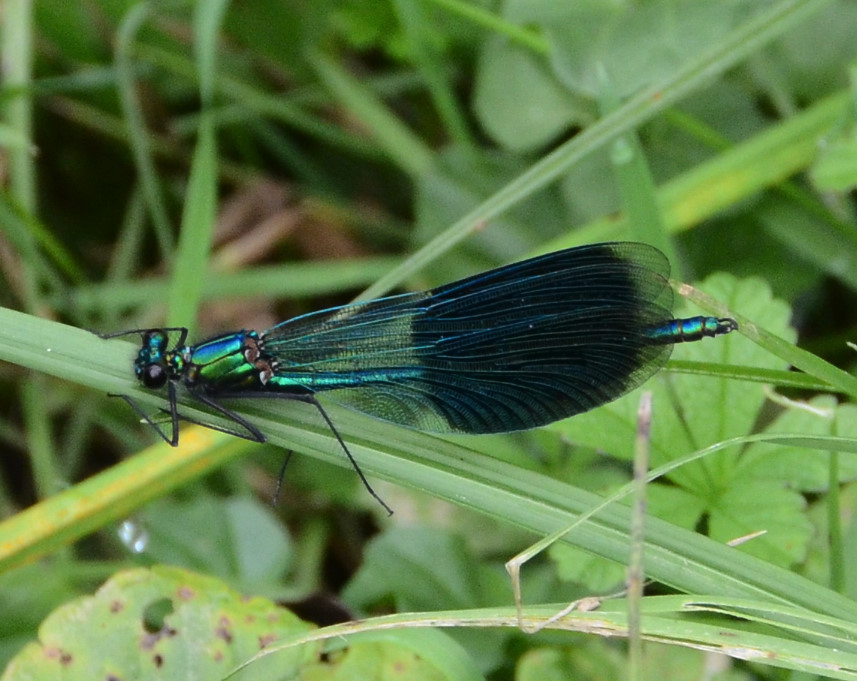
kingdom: Animalia
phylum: Arthropoda
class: Insecta
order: Odonata
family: Calopterygidae
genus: Calopteryx
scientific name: Calopteryx splendens
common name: Banded demoiselle
